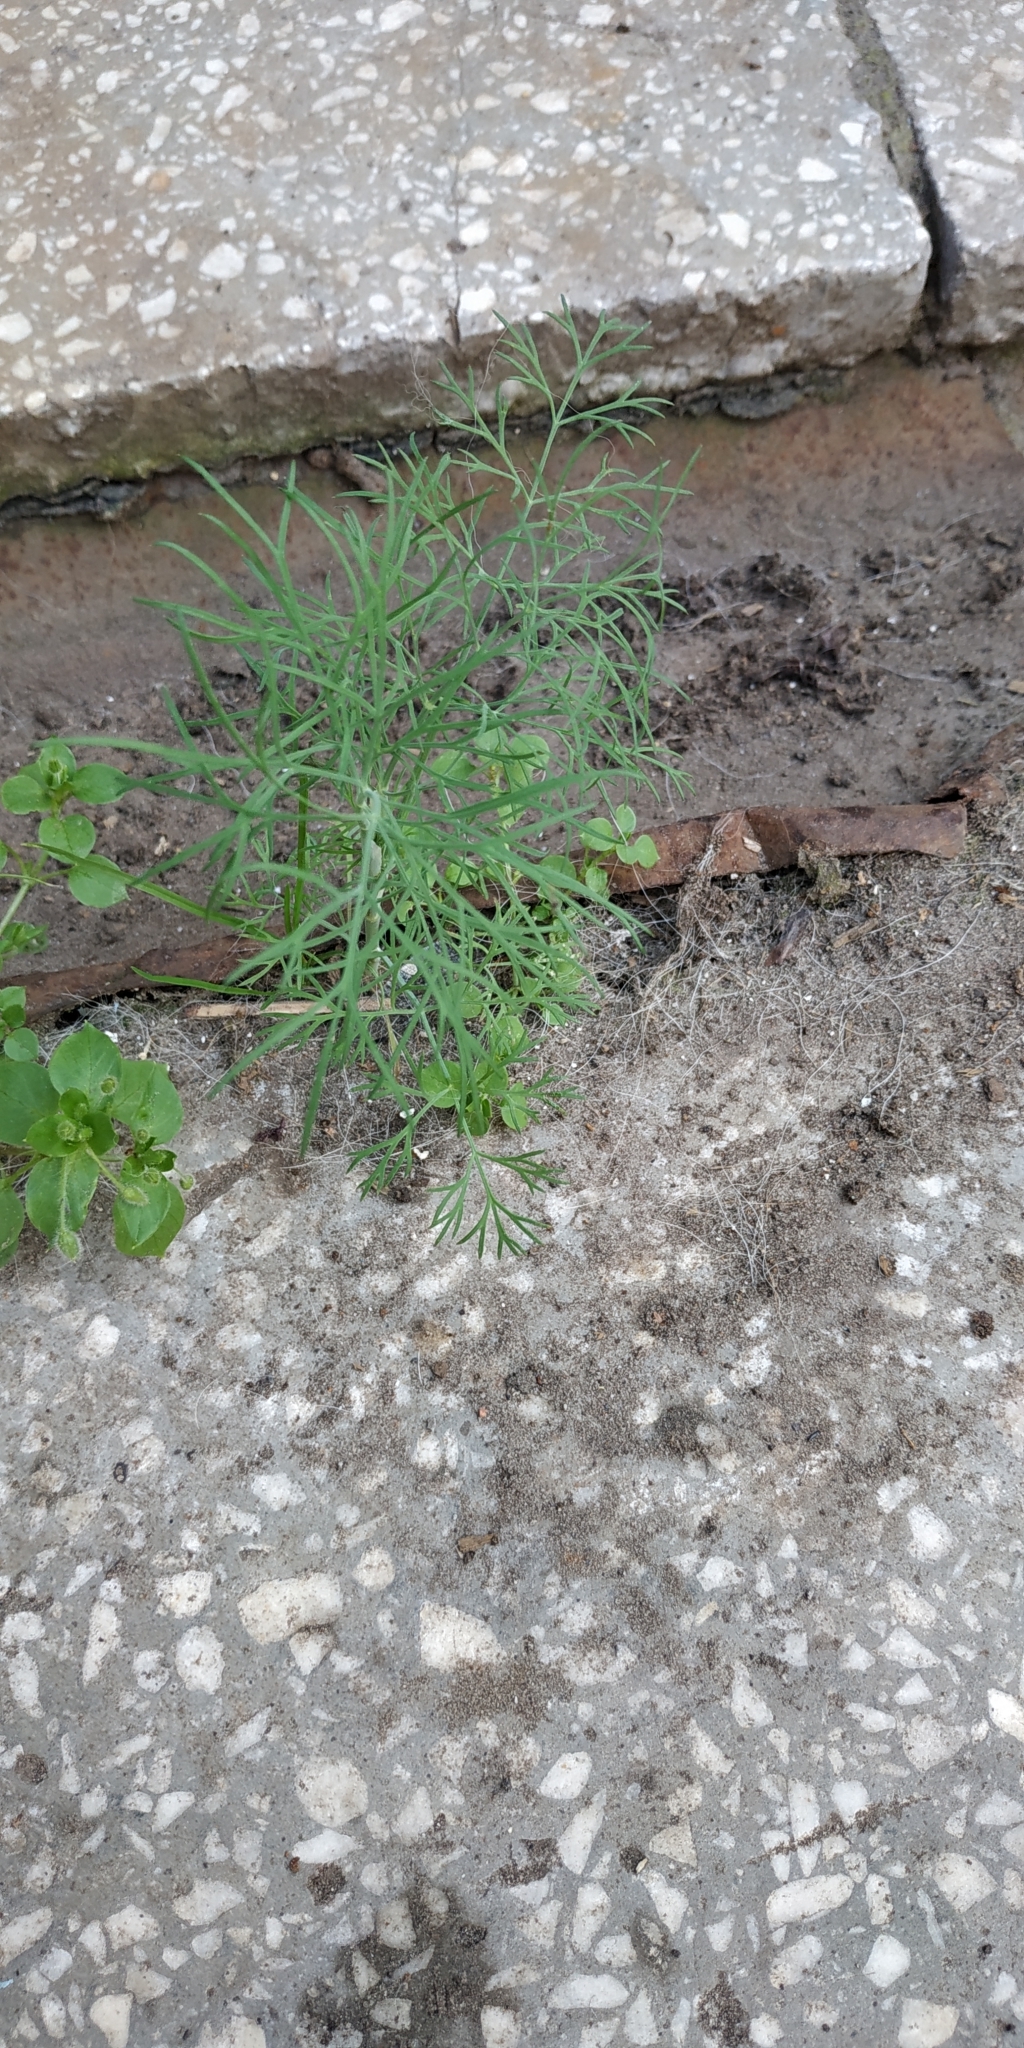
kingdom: Plantae
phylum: Tracheophyta
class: Magnoliopsida
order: Apiales
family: Apiaceae
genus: Anethum
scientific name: Anethum graveolens
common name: Dill
